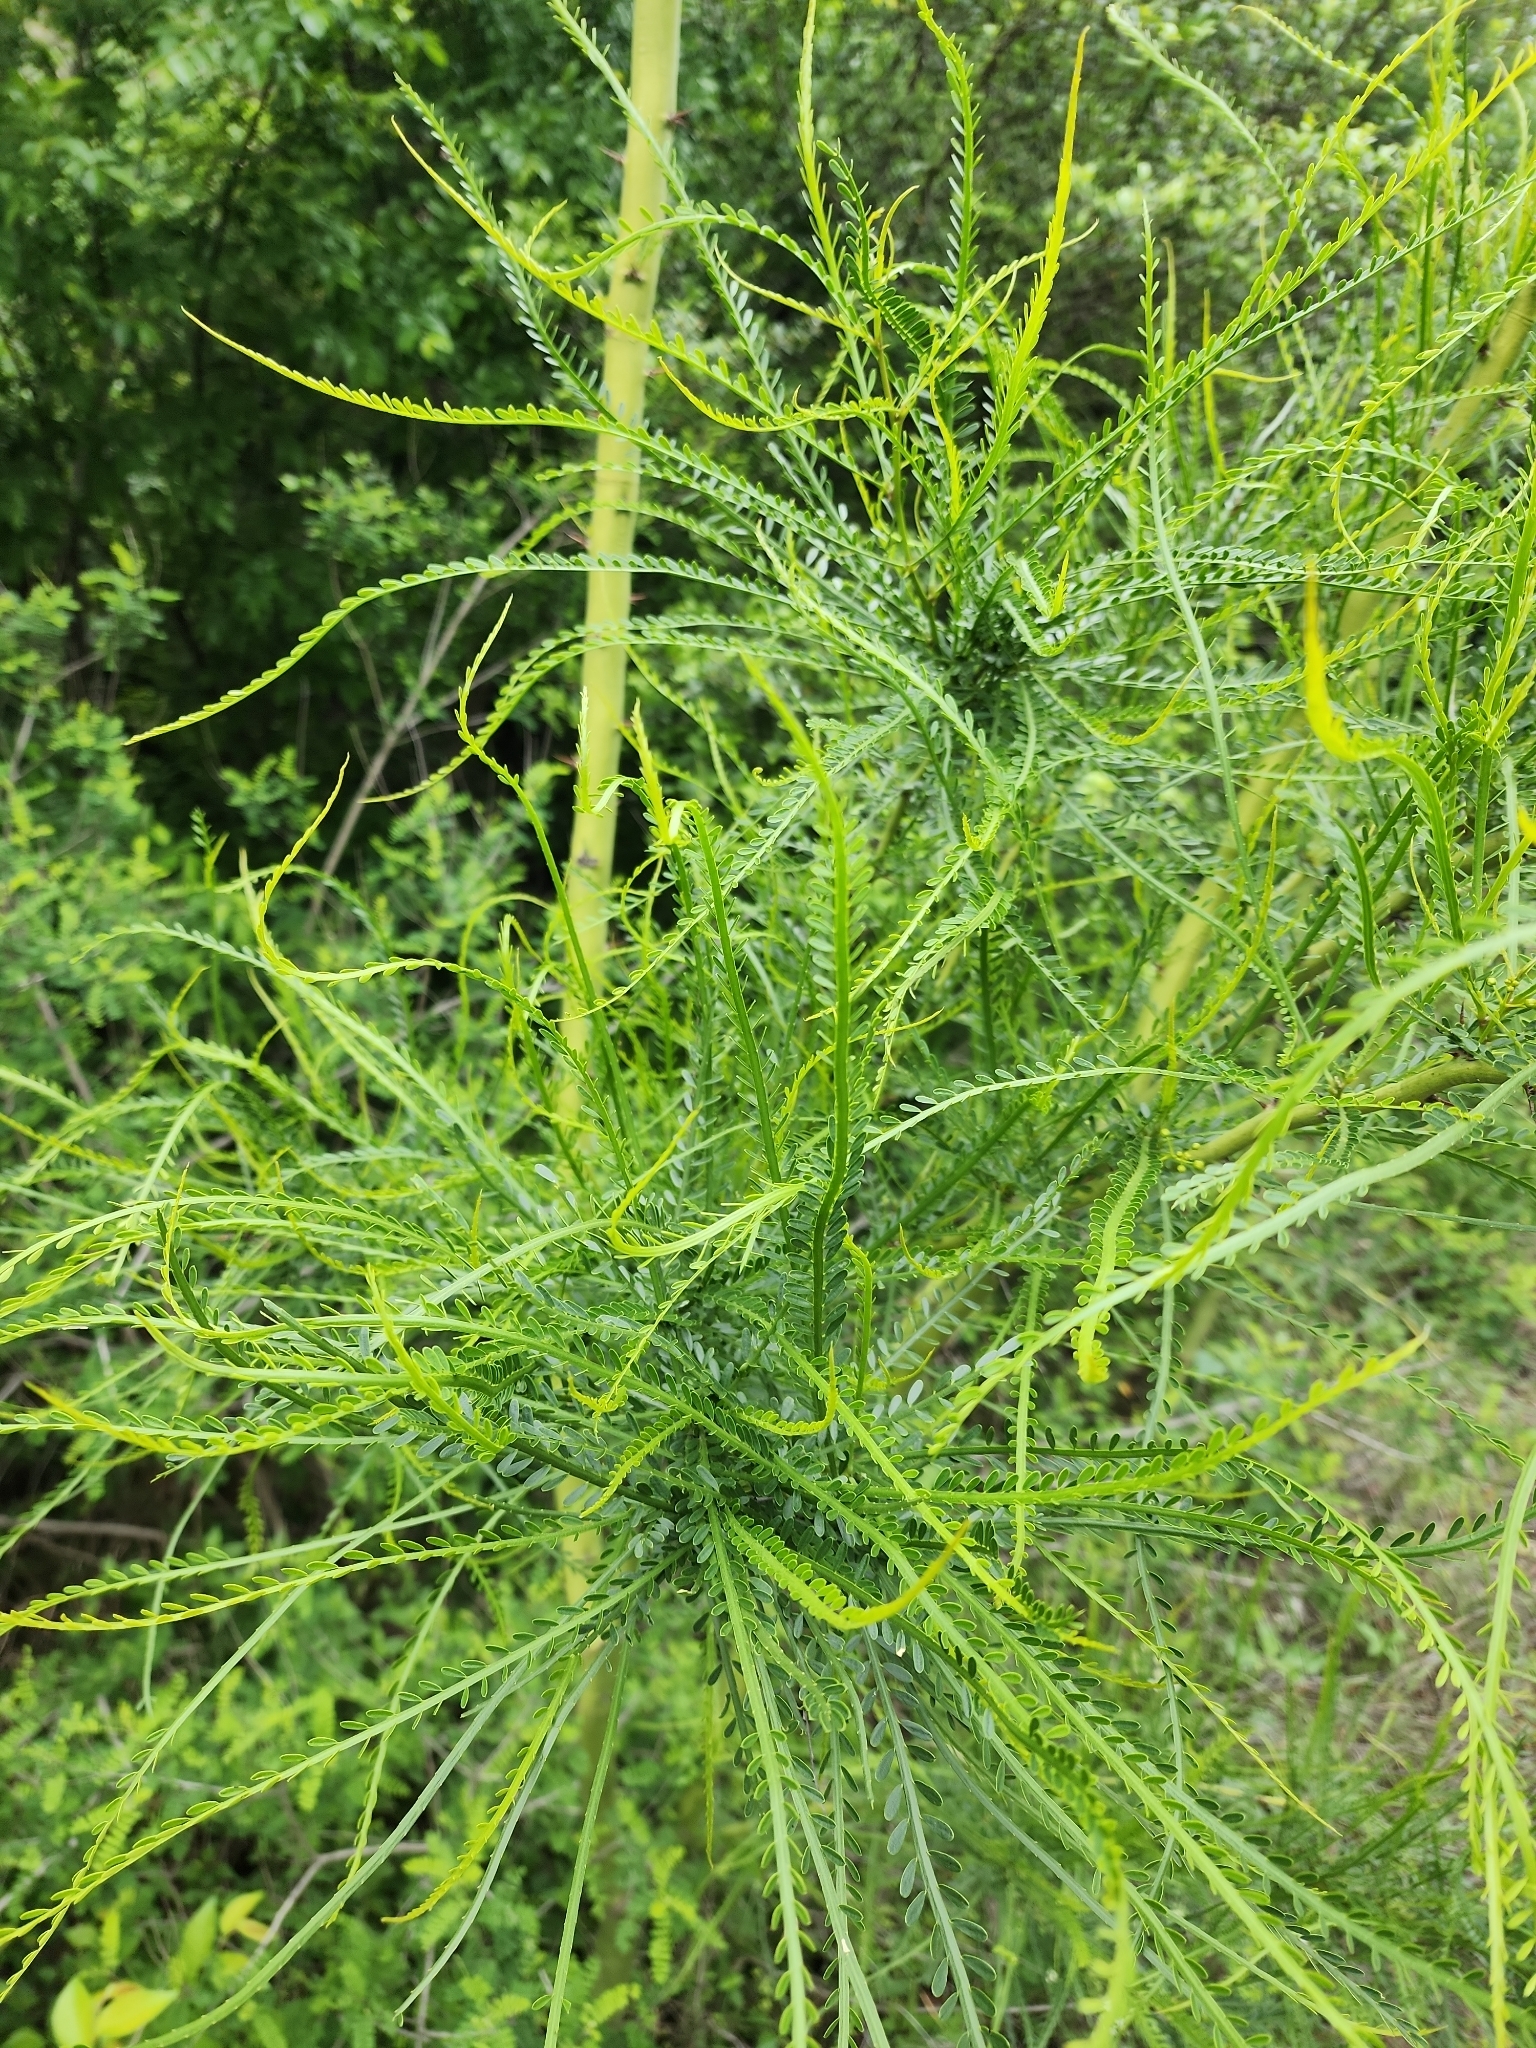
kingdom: Plantae
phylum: Tracheophyta
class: Magnoliopsida
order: Fabales
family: Fabaceae
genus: Parkinsonia
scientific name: Parkinsonia aculeata
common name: Jerusalem thorn
